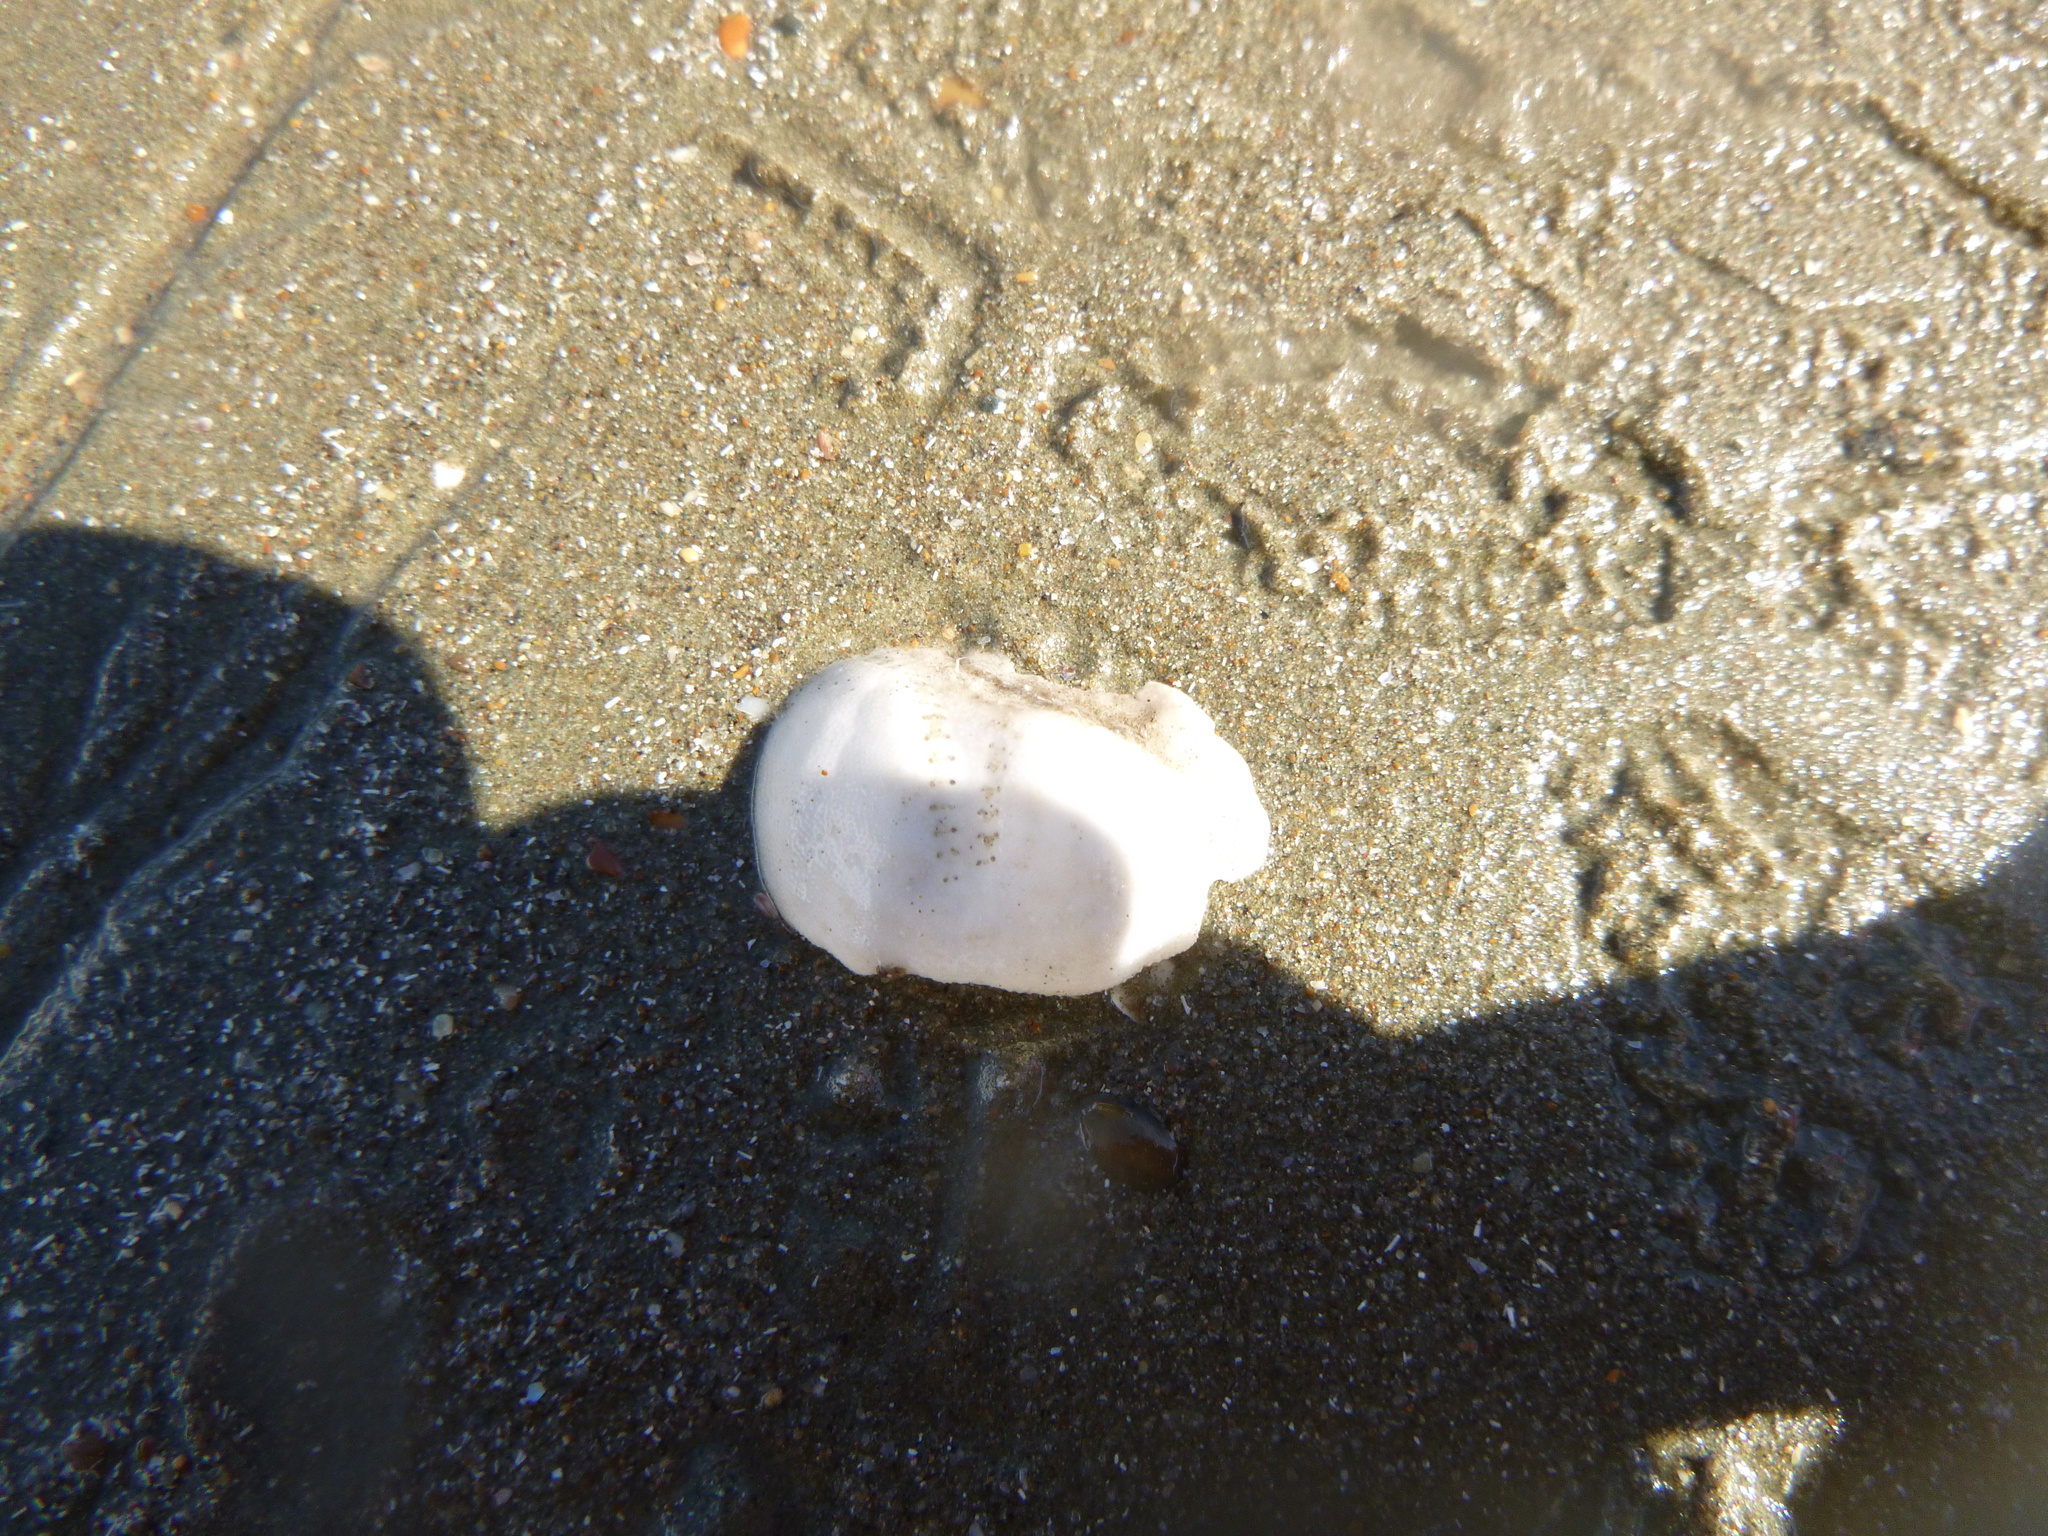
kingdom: Animalia
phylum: Echinodermata
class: Echinoidea
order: Spatangoida
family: Loveniidae
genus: Echinocardium
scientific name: Echinocardium cordatum
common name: Heart-urchin
